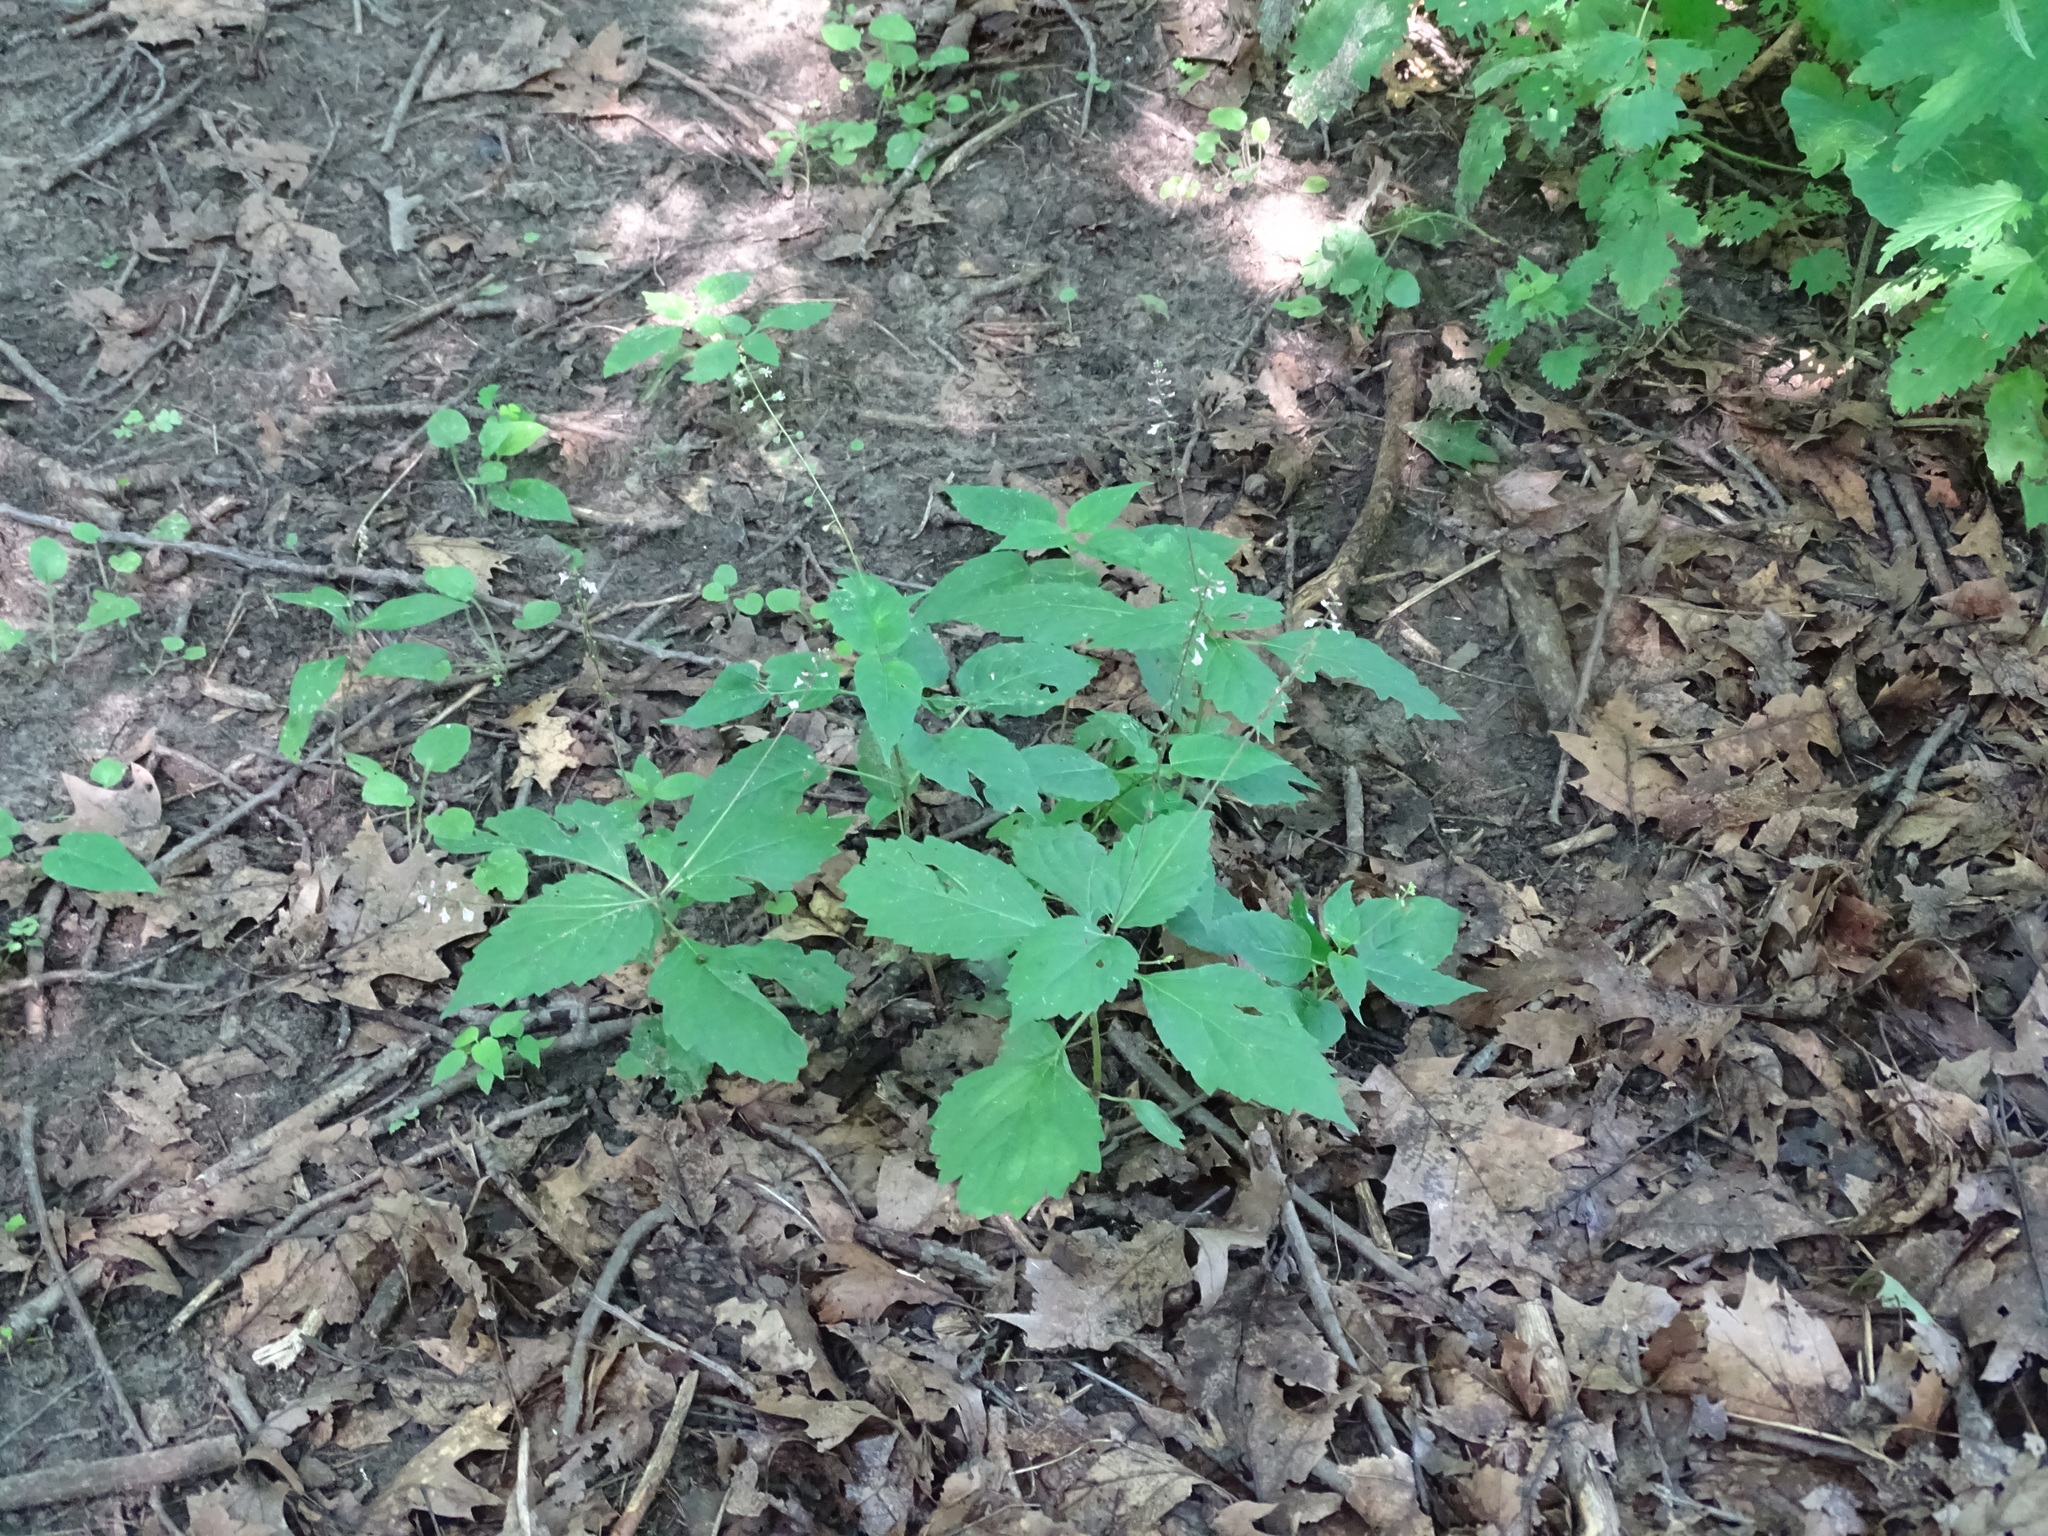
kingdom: Plantae
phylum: Tracheophyta
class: Magnoliopsida
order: Lamiales
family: Phrymaceae
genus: Phryma
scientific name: Phryma leptostachya
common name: American lopseed
